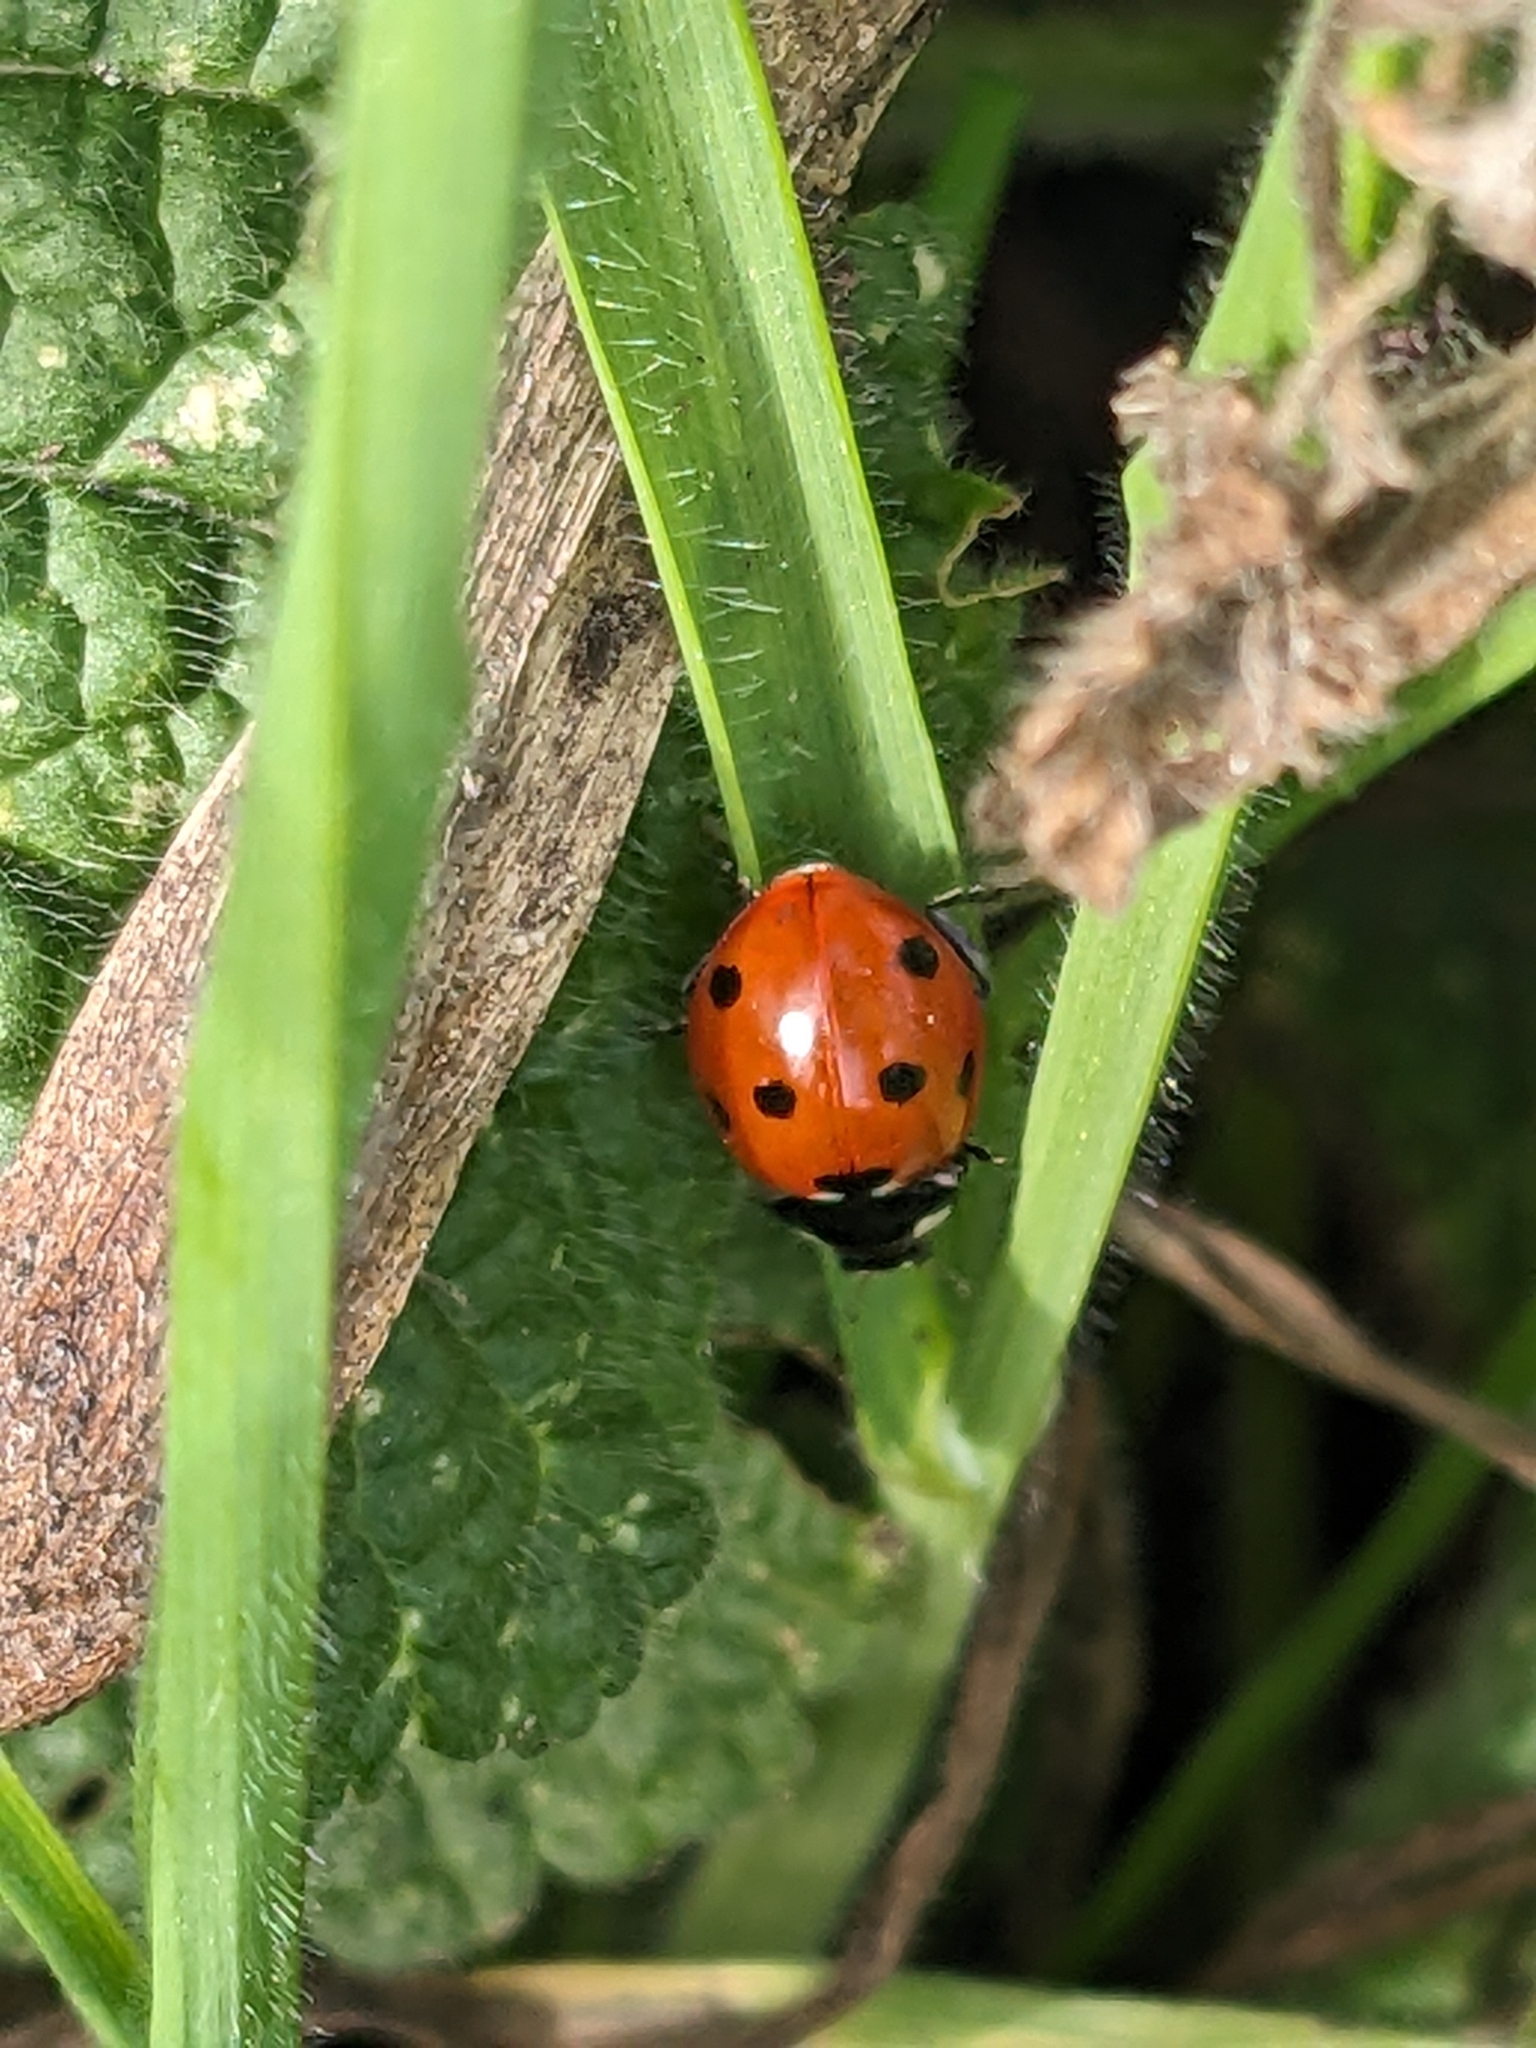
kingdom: Animalia
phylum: Arthropoda
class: Insecta
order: Coleoptera
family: Coccinellidae
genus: Coccinella
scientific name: Coccinella septempunctata
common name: Sevenspotted lady beetle
